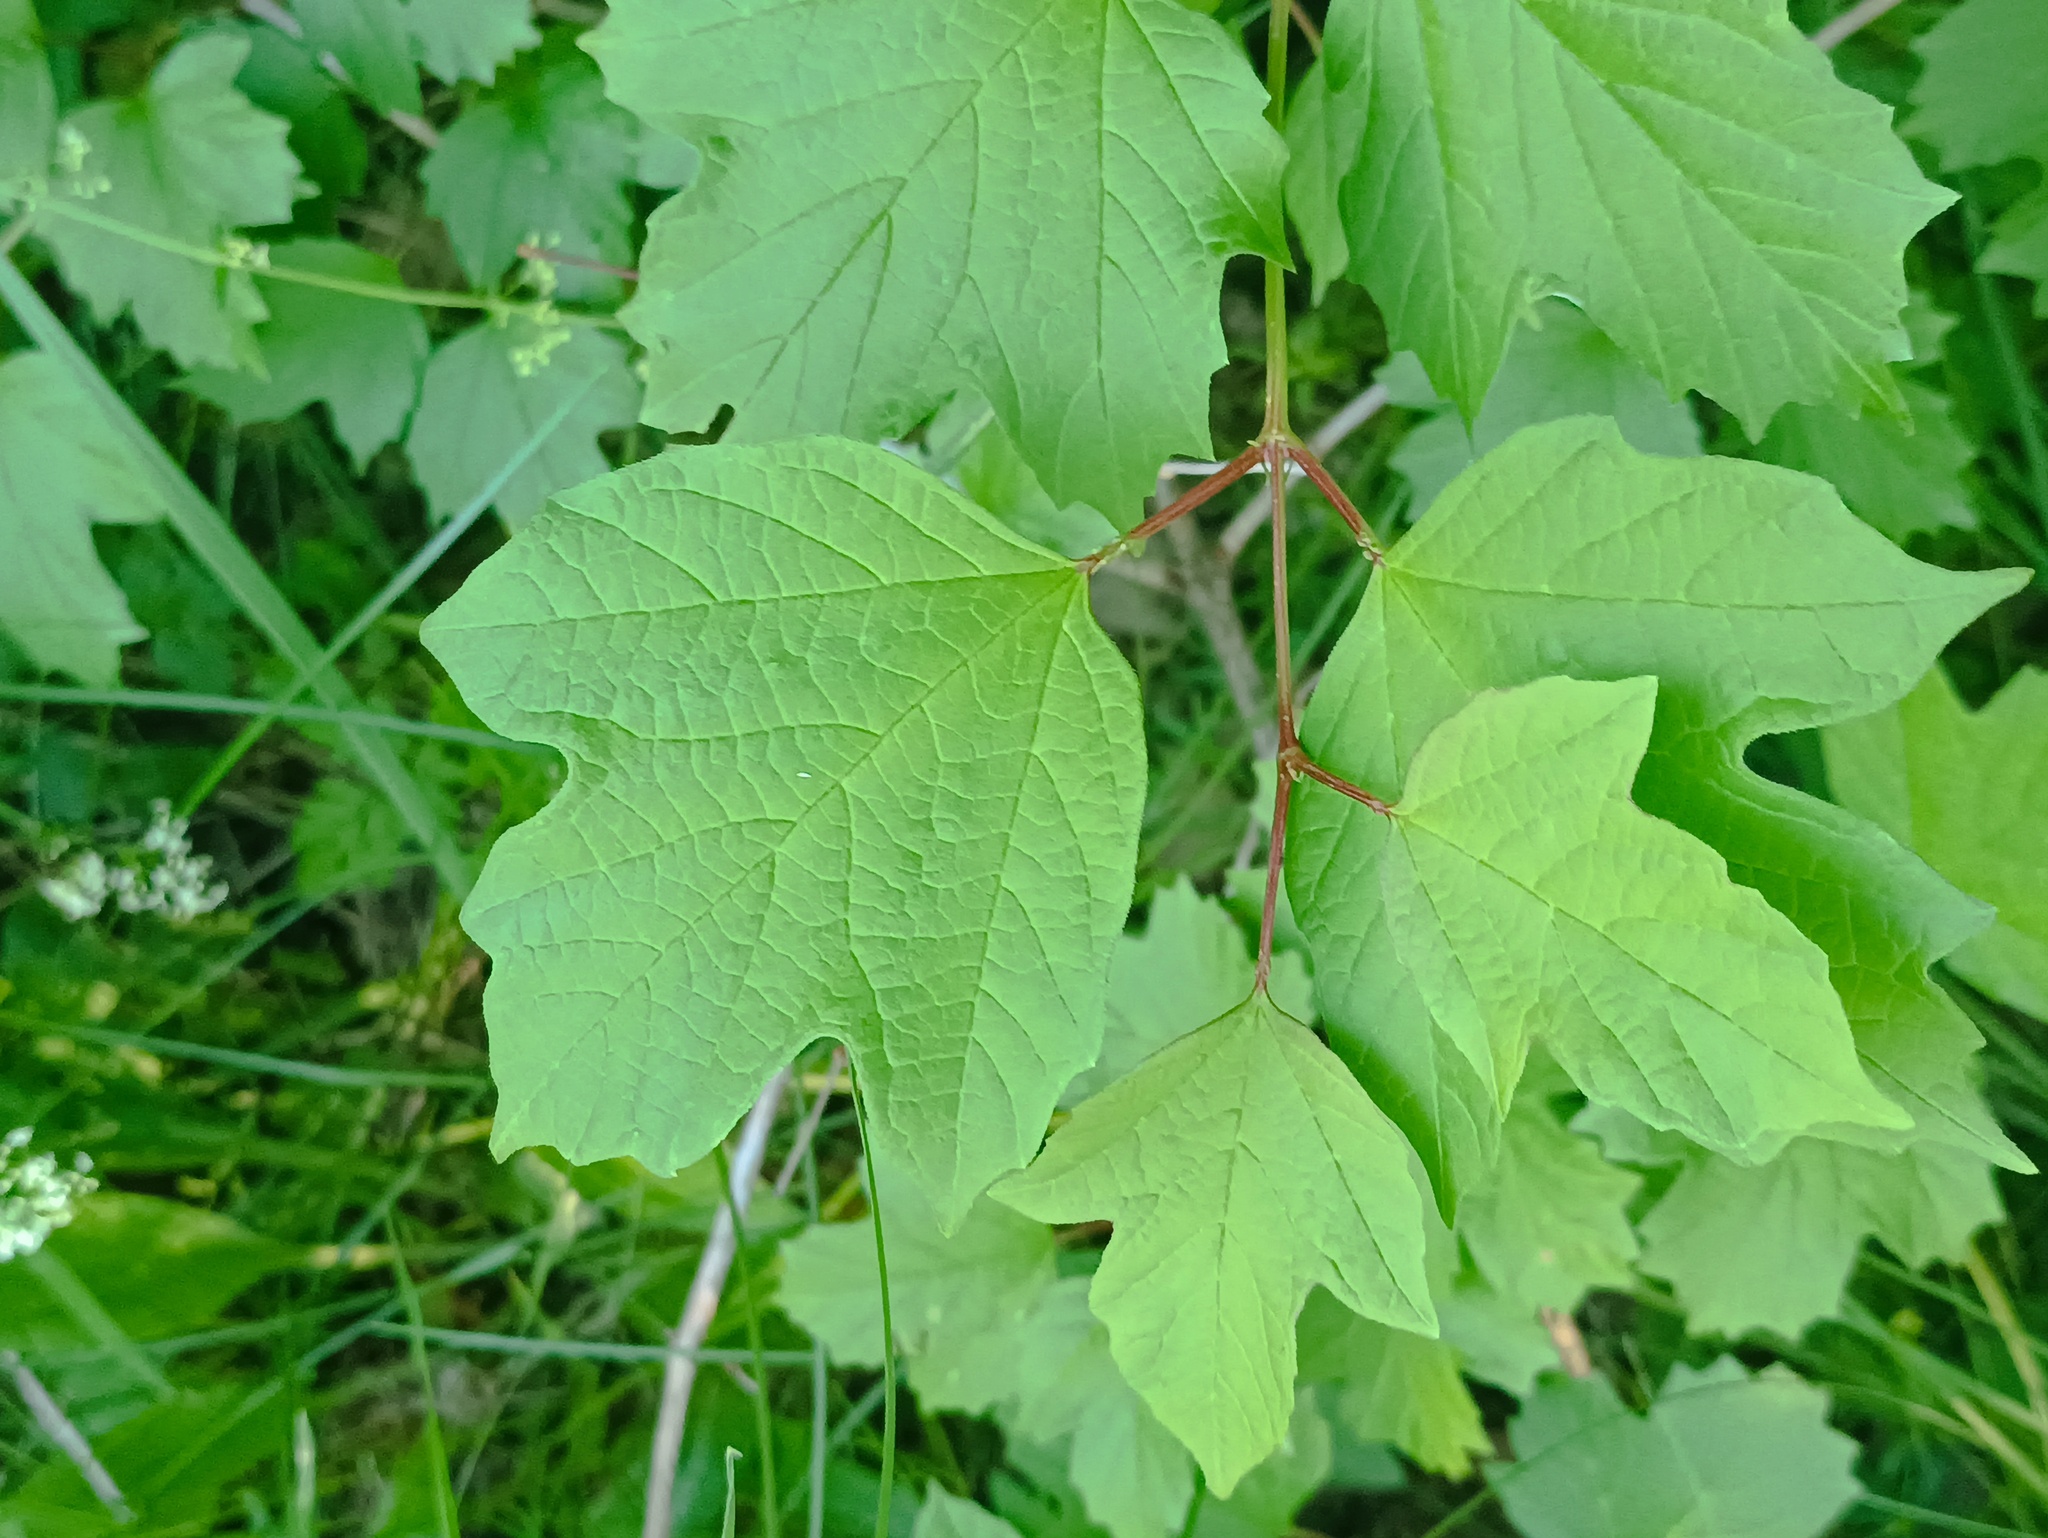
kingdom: Plantae
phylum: Tracheophyta
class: Magnoliopsida
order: Dipsacales
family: Viburnaceae
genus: Viburnum
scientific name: Viburnum opulus
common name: Guelder-rose
